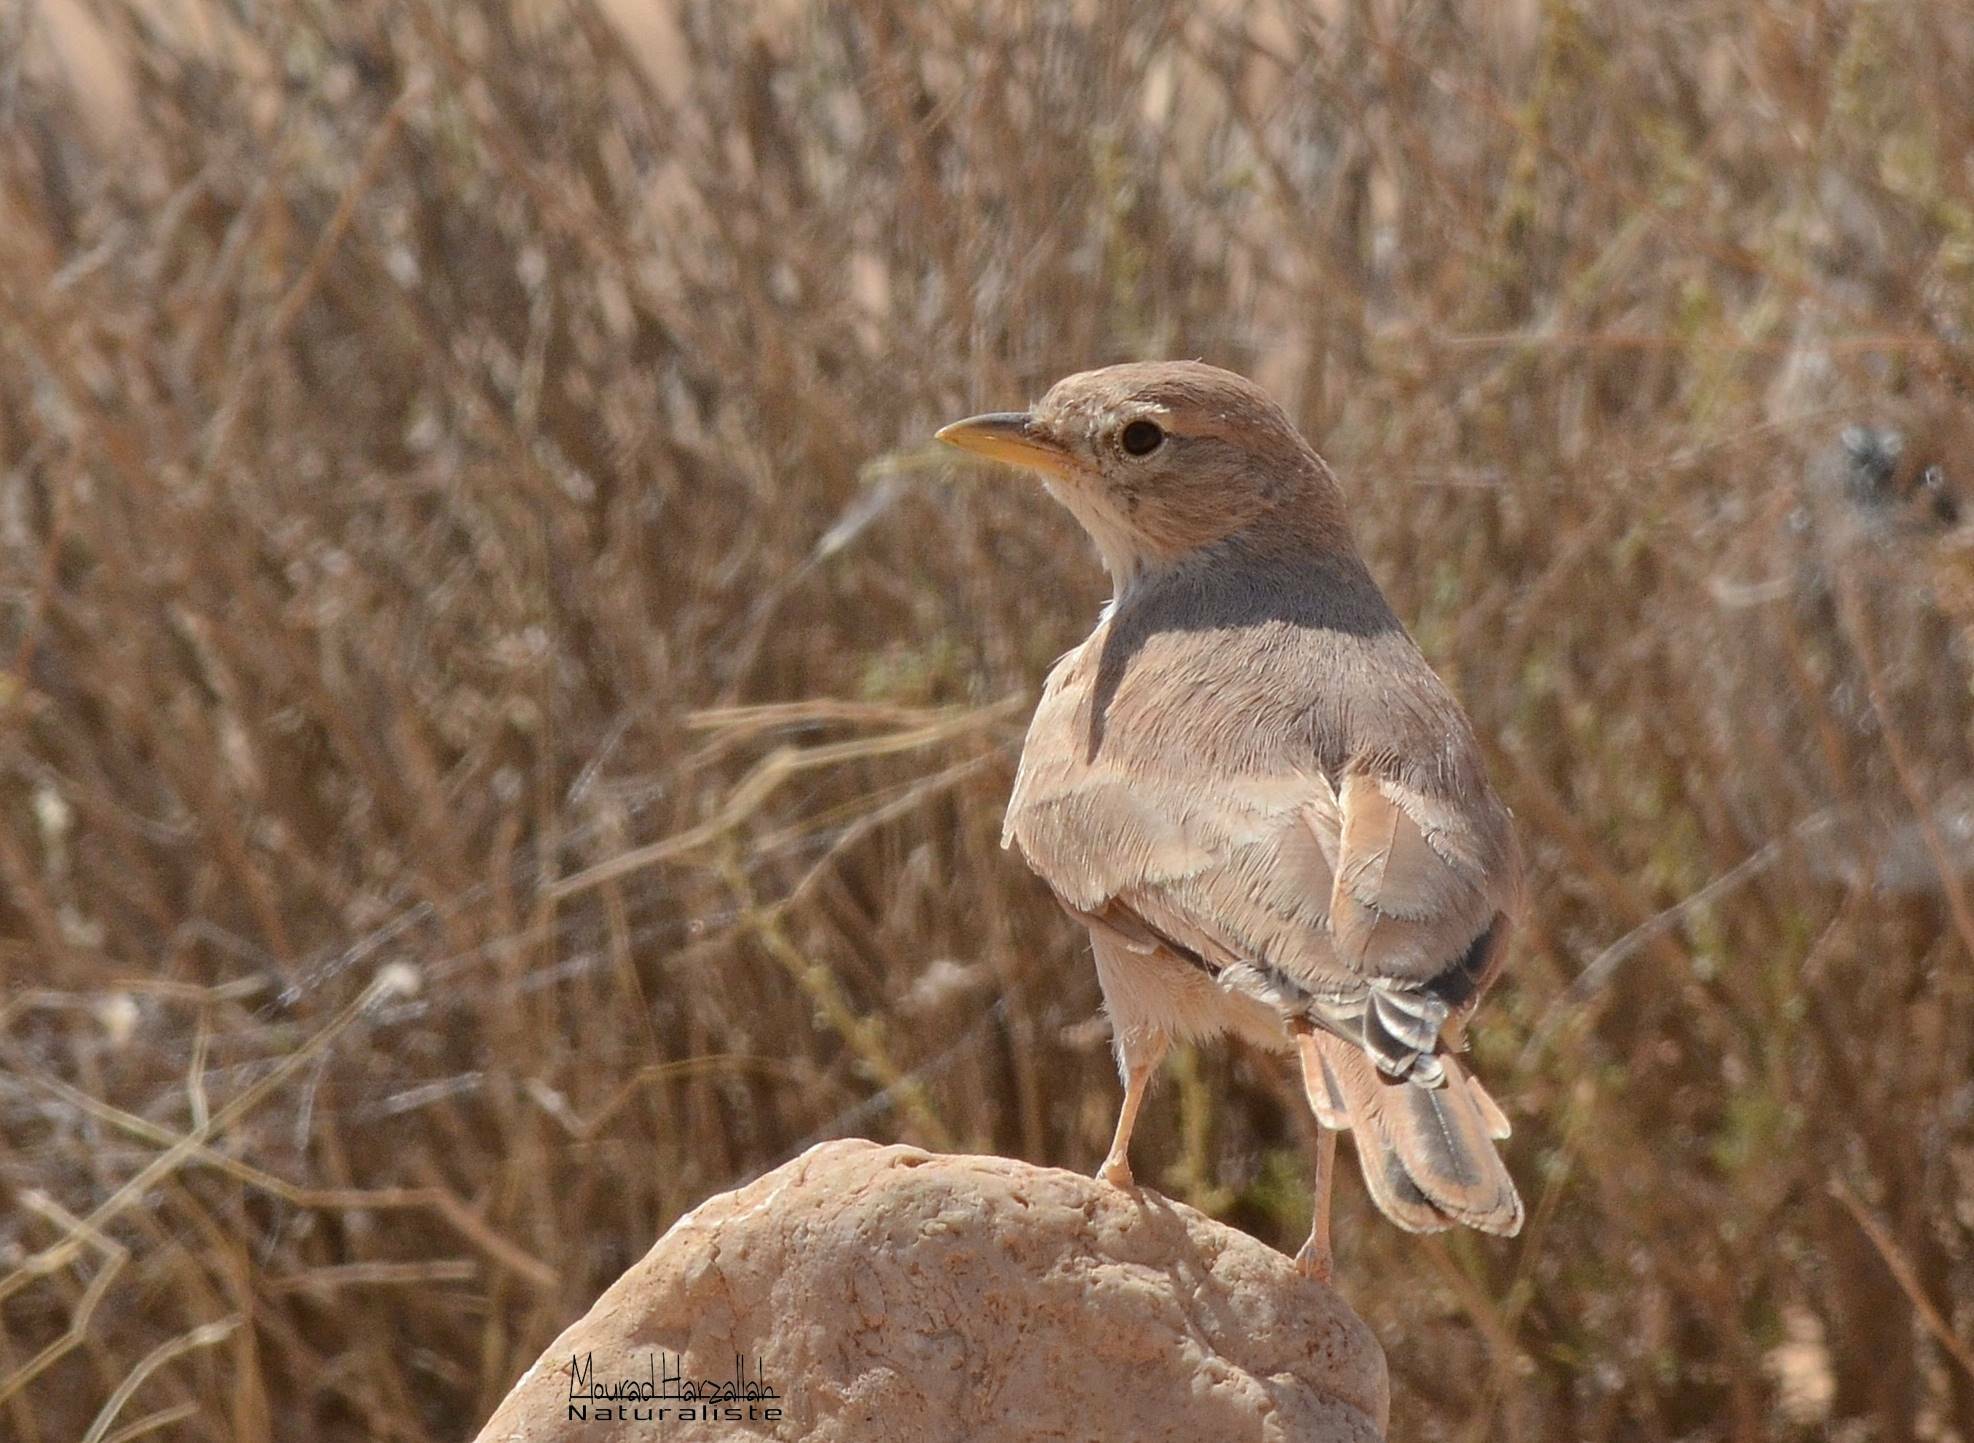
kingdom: Animalia
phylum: Chordata
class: Aves
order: Passeriformes
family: Alaudidae
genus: Ammomanes
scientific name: Ammomanes deserti
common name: Desert lark
